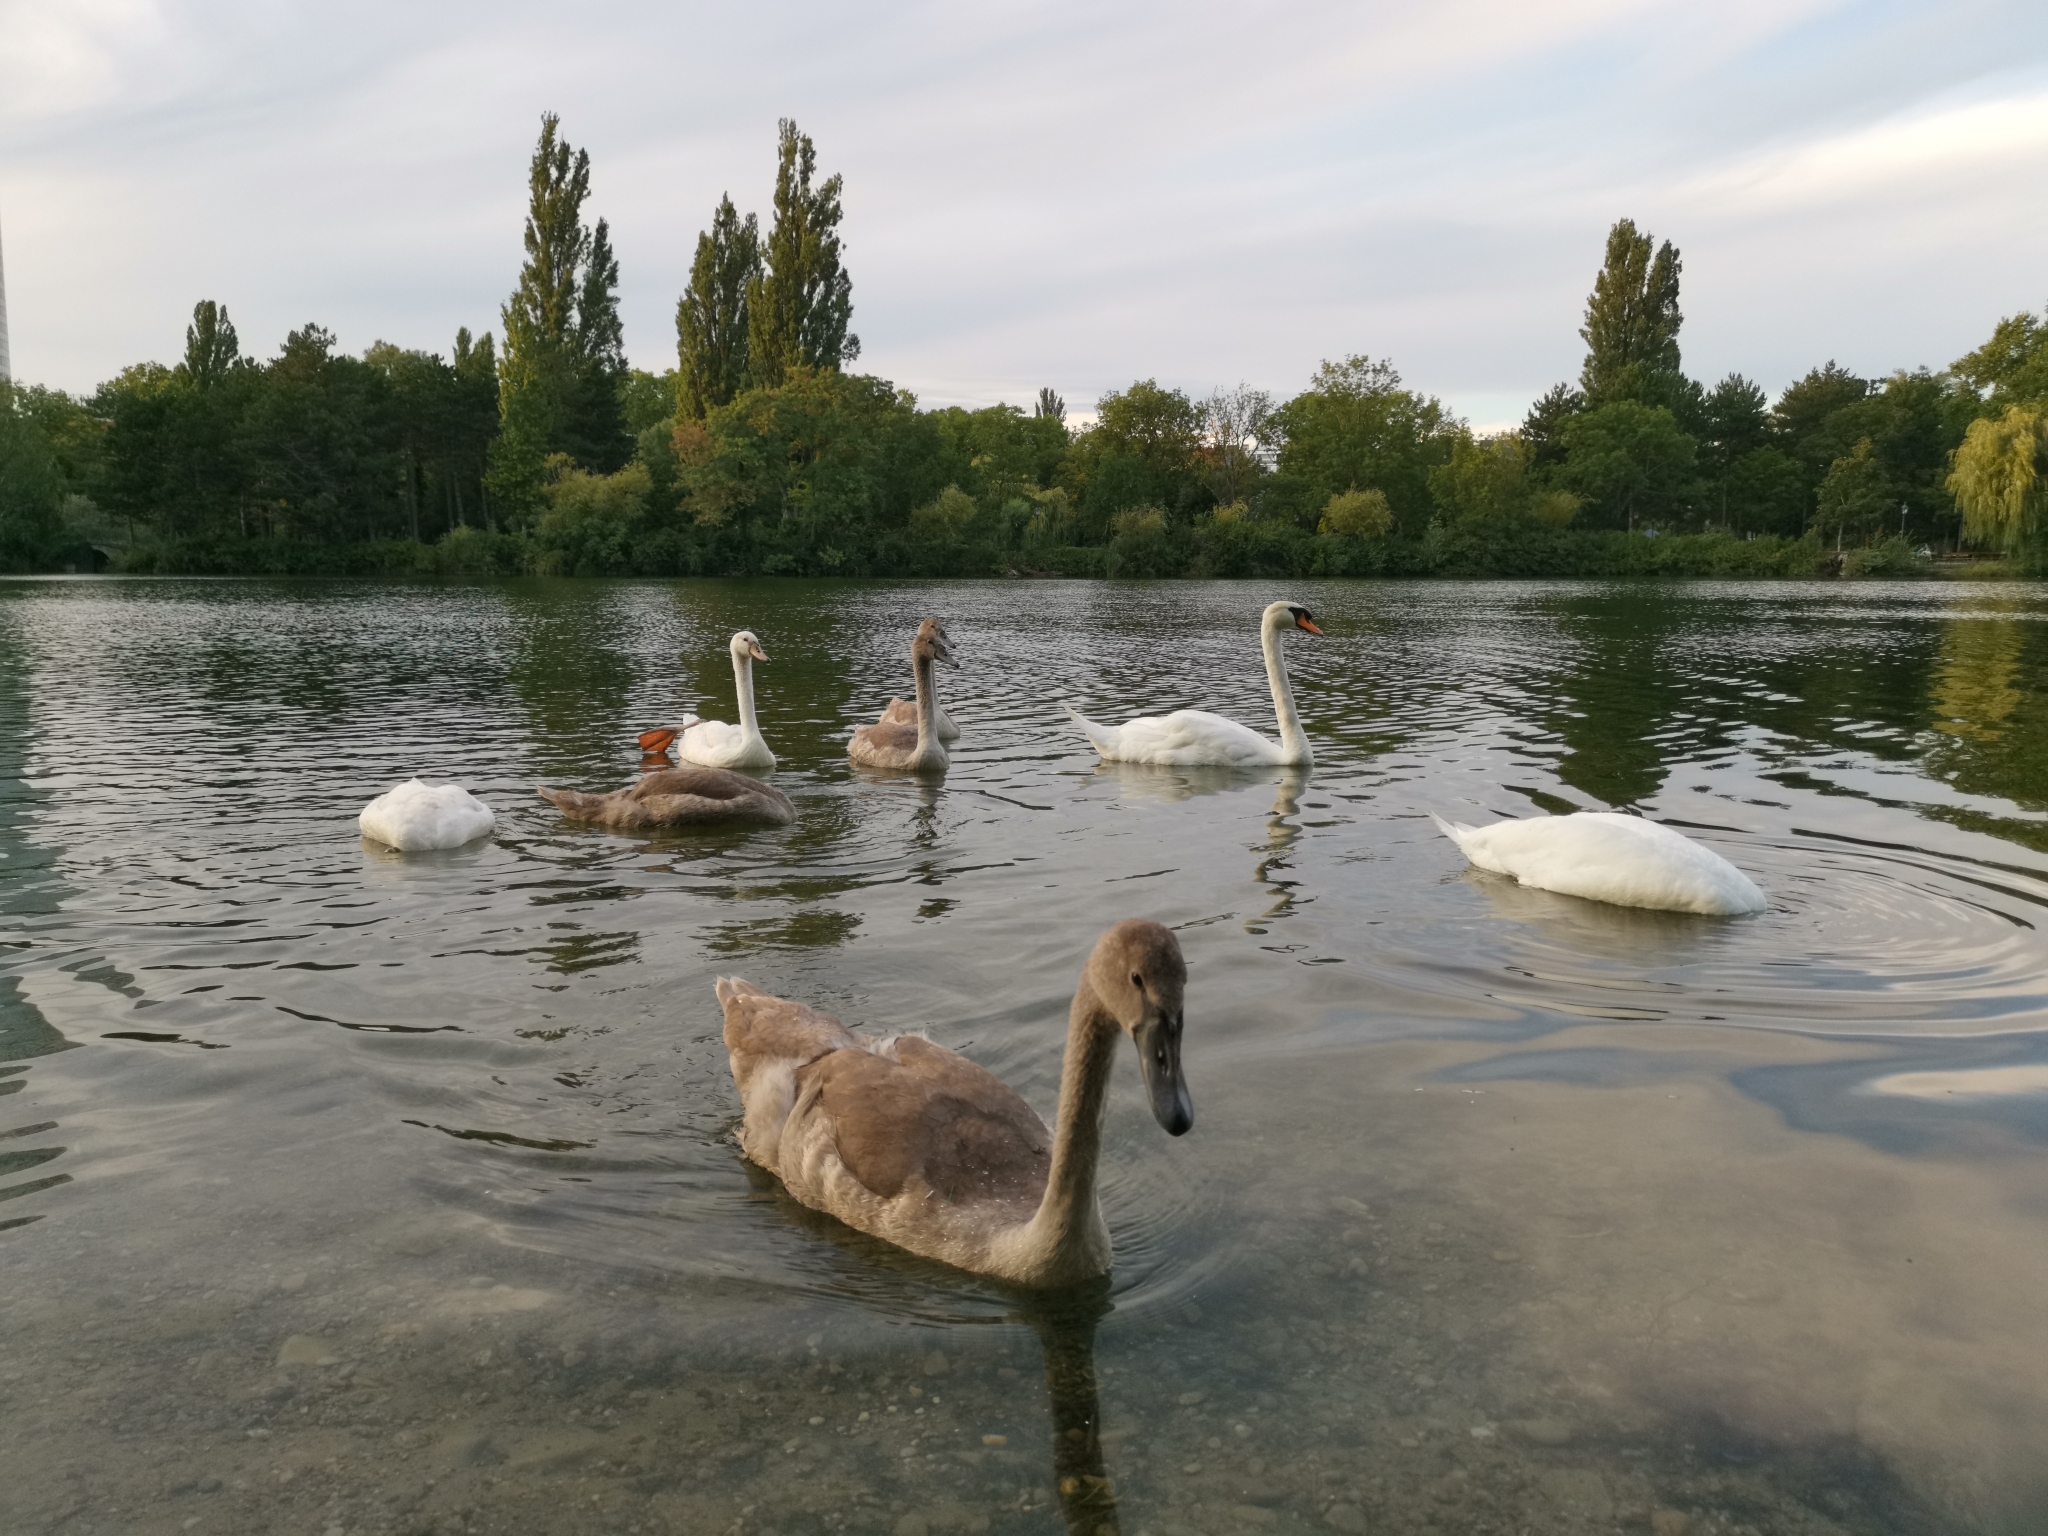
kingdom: Animalia
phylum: Chordata
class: Aves
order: Anseriformes
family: Anatidae
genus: Cygnus
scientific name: Cygnus olor
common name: Mute swan
